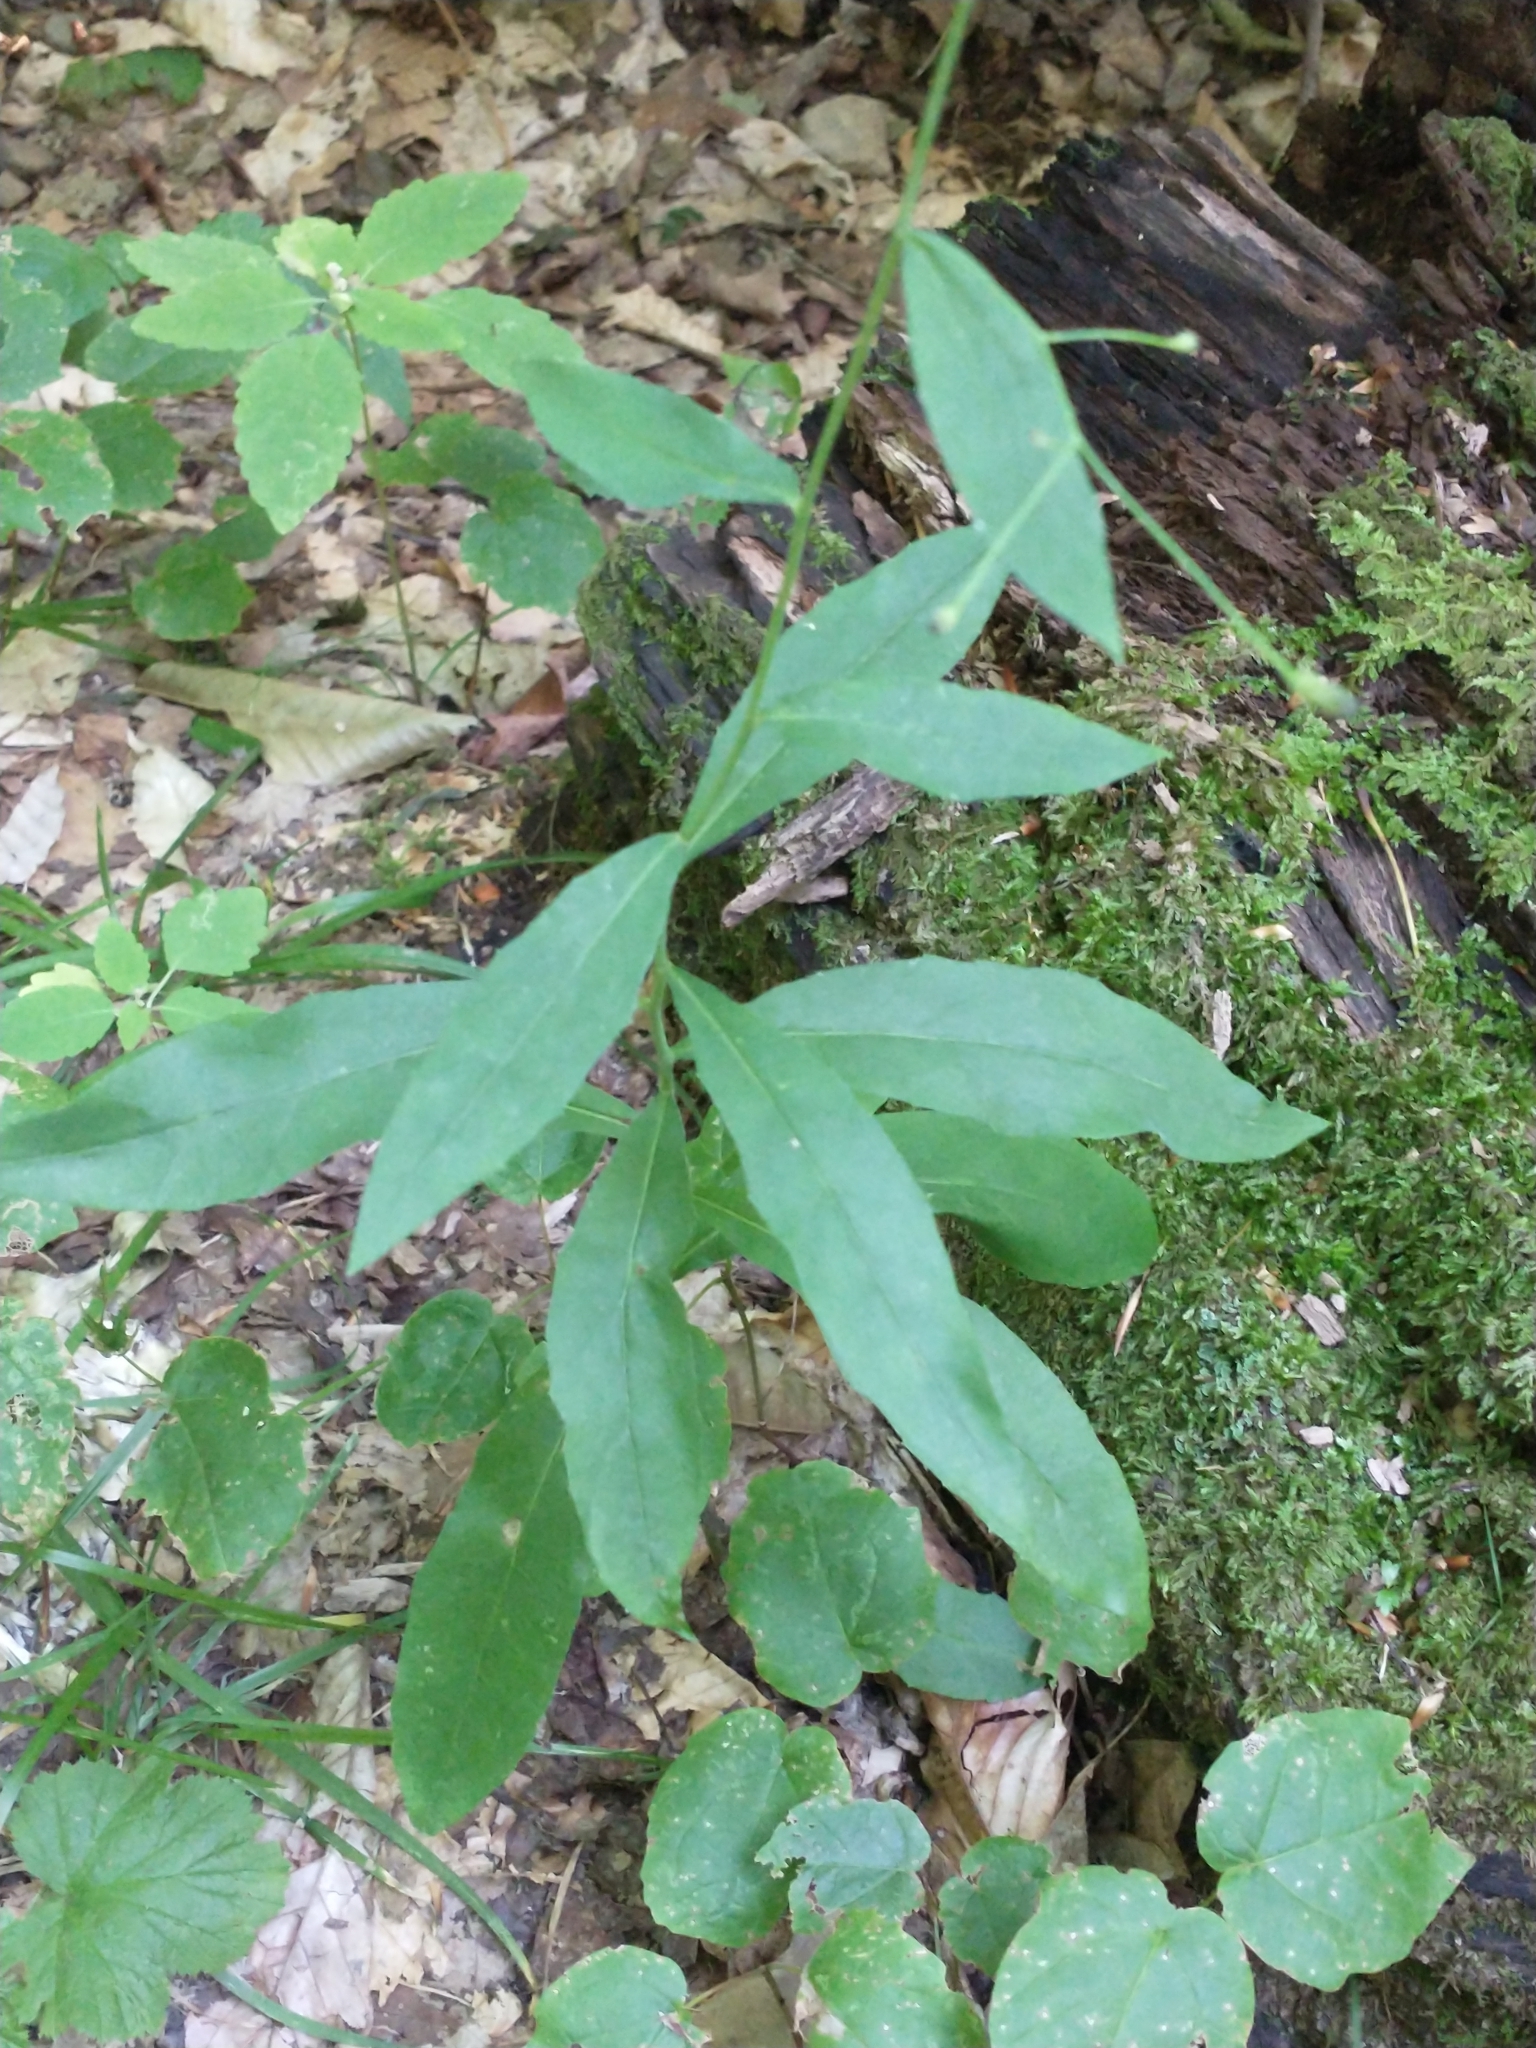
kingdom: Plantae
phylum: Tracheophyta
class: Magnoliopsida
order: Asterales
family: Asteraceae
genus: Hieracium
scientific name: Hieracium paniculatum
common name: Allegheny hawkweed
